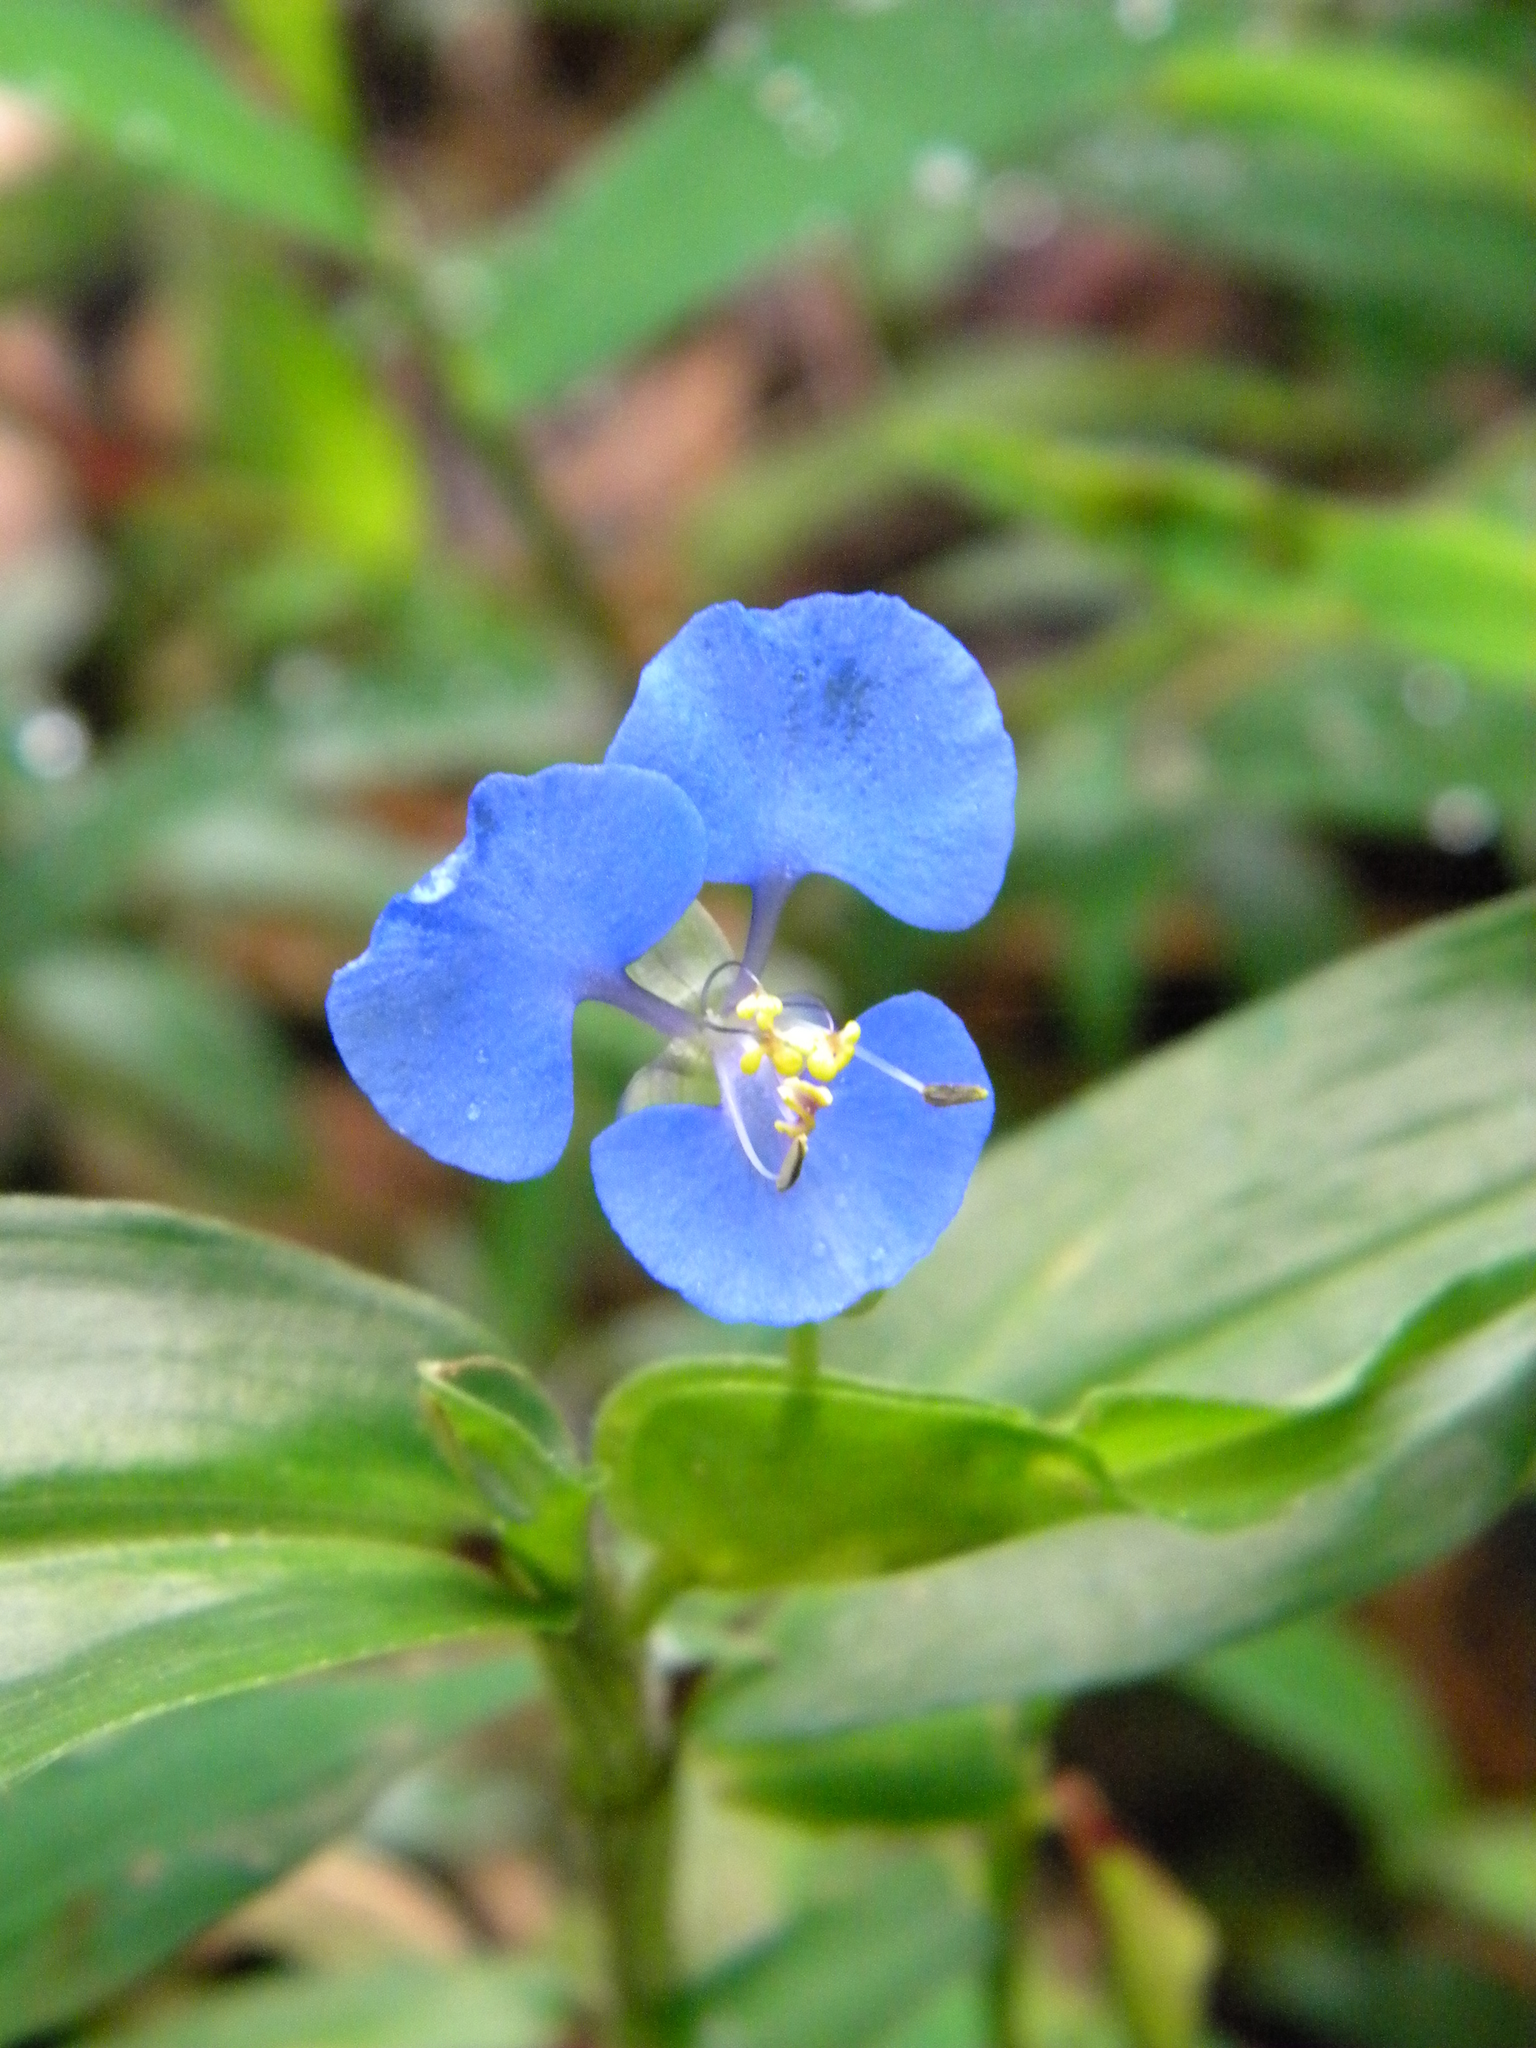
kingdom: Plantae
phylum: Tracheophyta
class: Liliopsida
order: Commelinales
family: Commelinaceae
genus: Commelina
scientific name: Commelina diffusa
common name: Climbing dayflower
